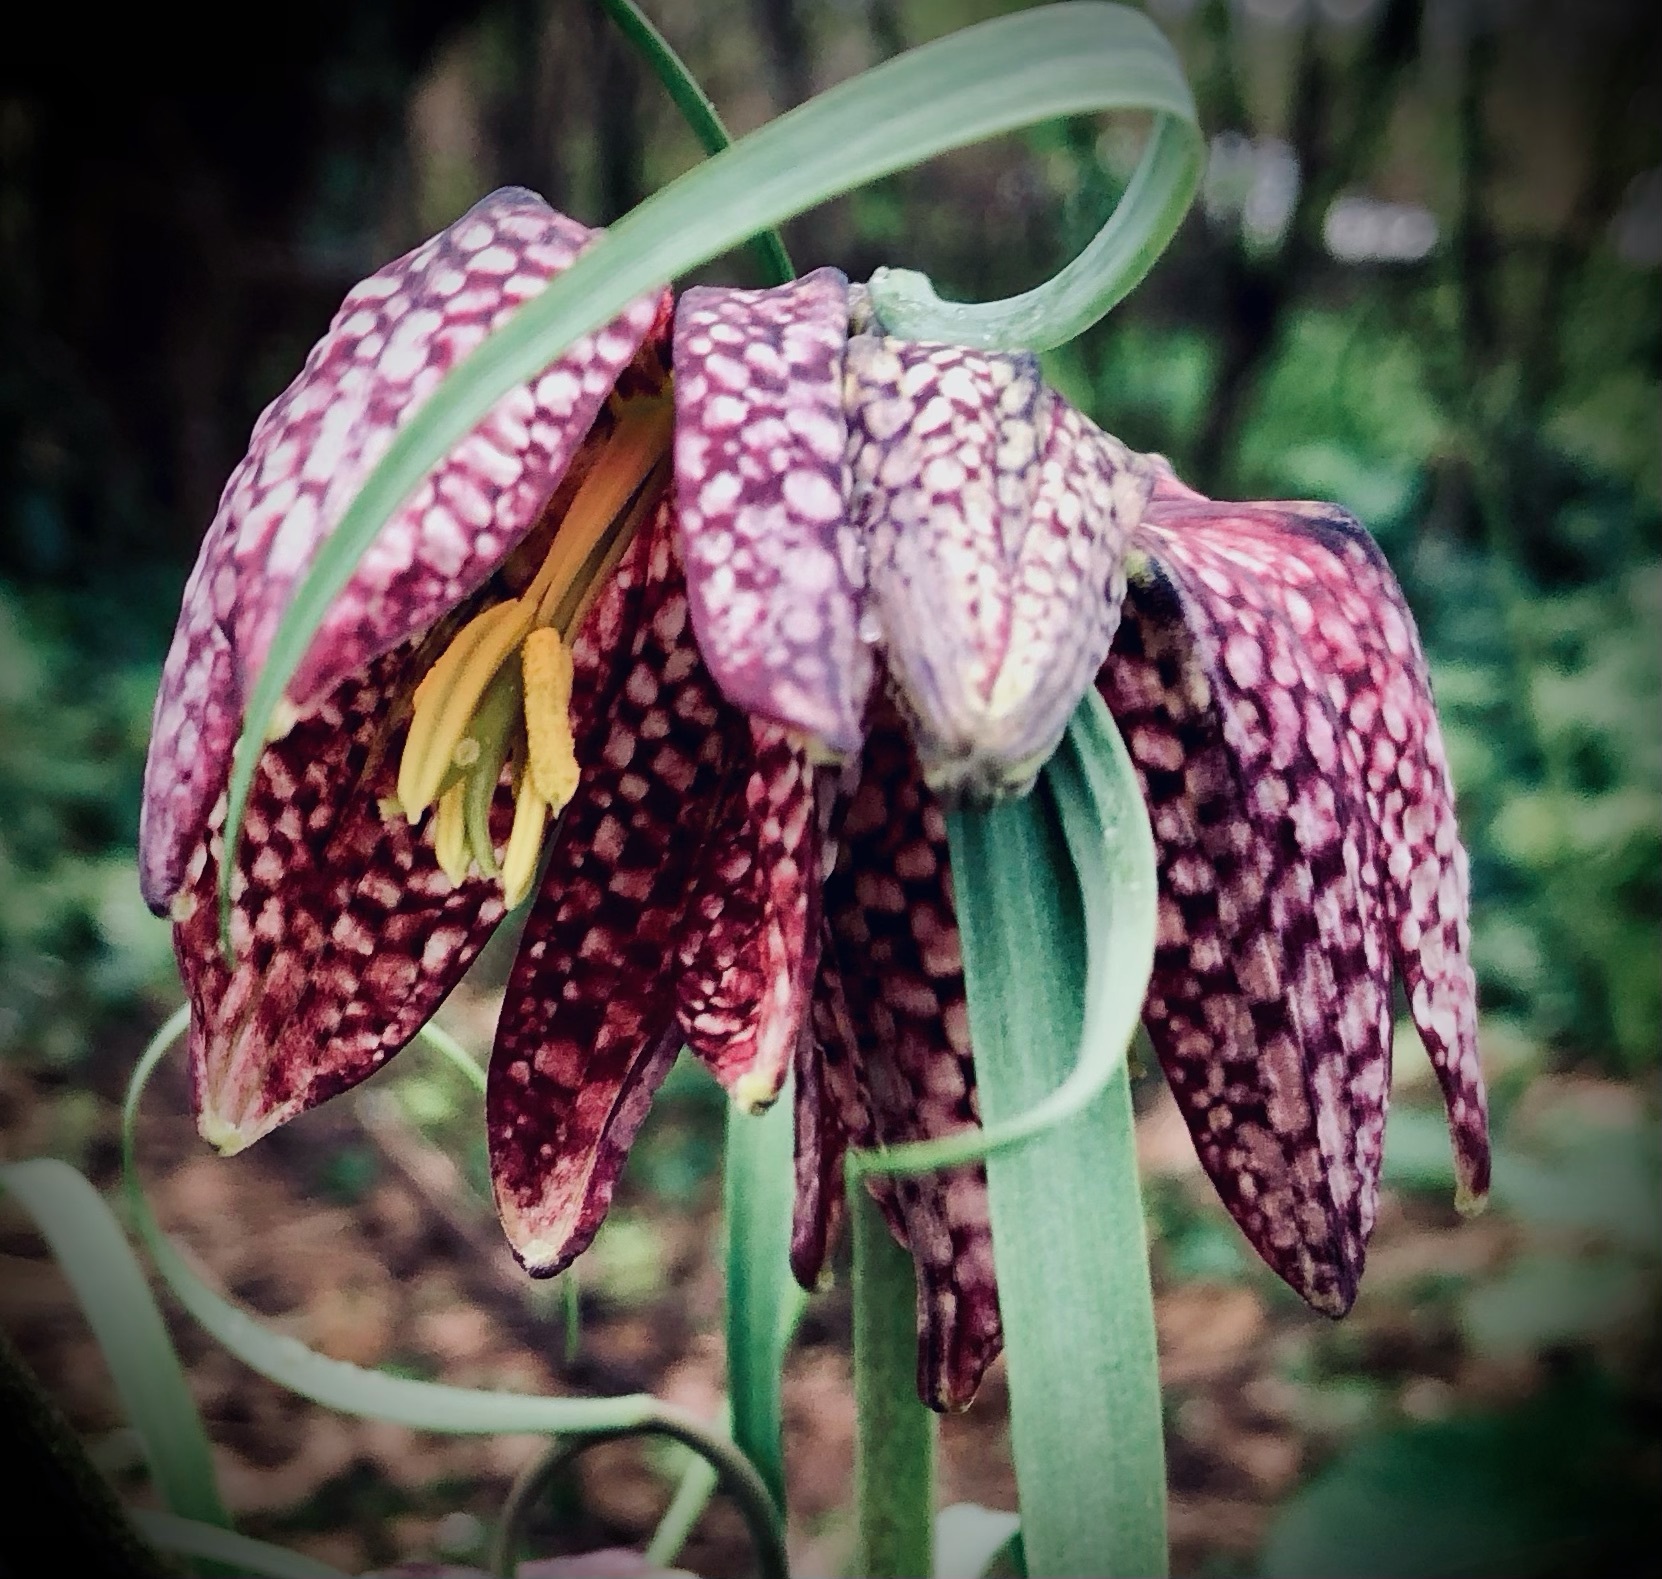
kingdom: Plantae
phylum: Tracheophyta
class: Liliopsida
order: Liliales
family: Liliaceae
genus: Fritillaria
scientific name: Fritillaria meleagris
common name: Fritillary
